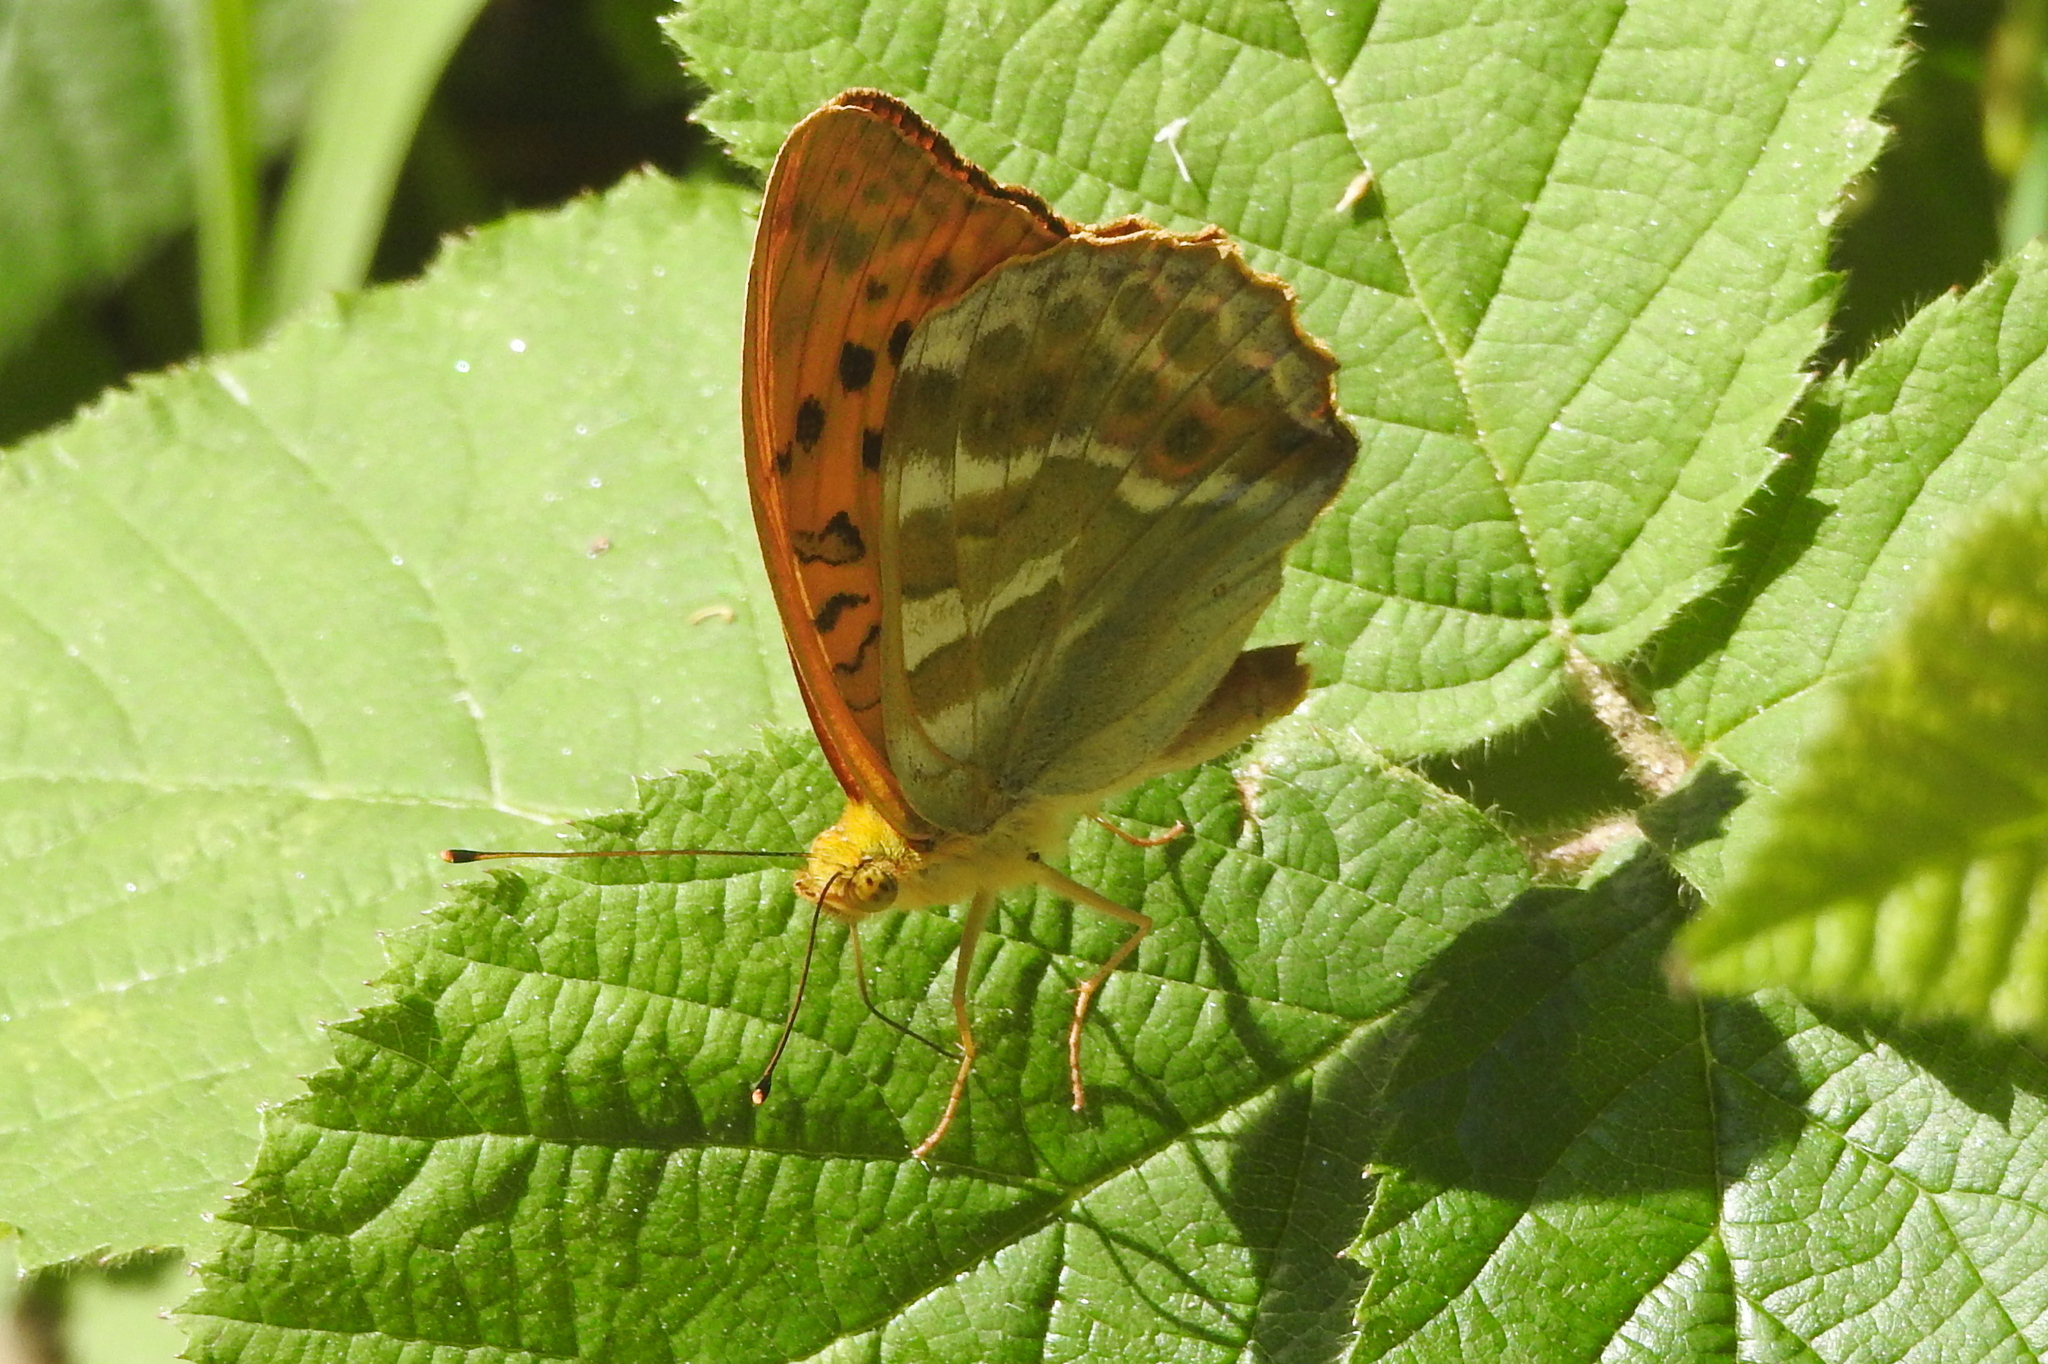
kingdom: Animalia
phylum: Arthropoda
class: Insecta
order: Lepidoptera
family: Nymphalidae
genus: Argynnis
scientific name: Argynnis paphia
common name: Silver-washed fritillary
